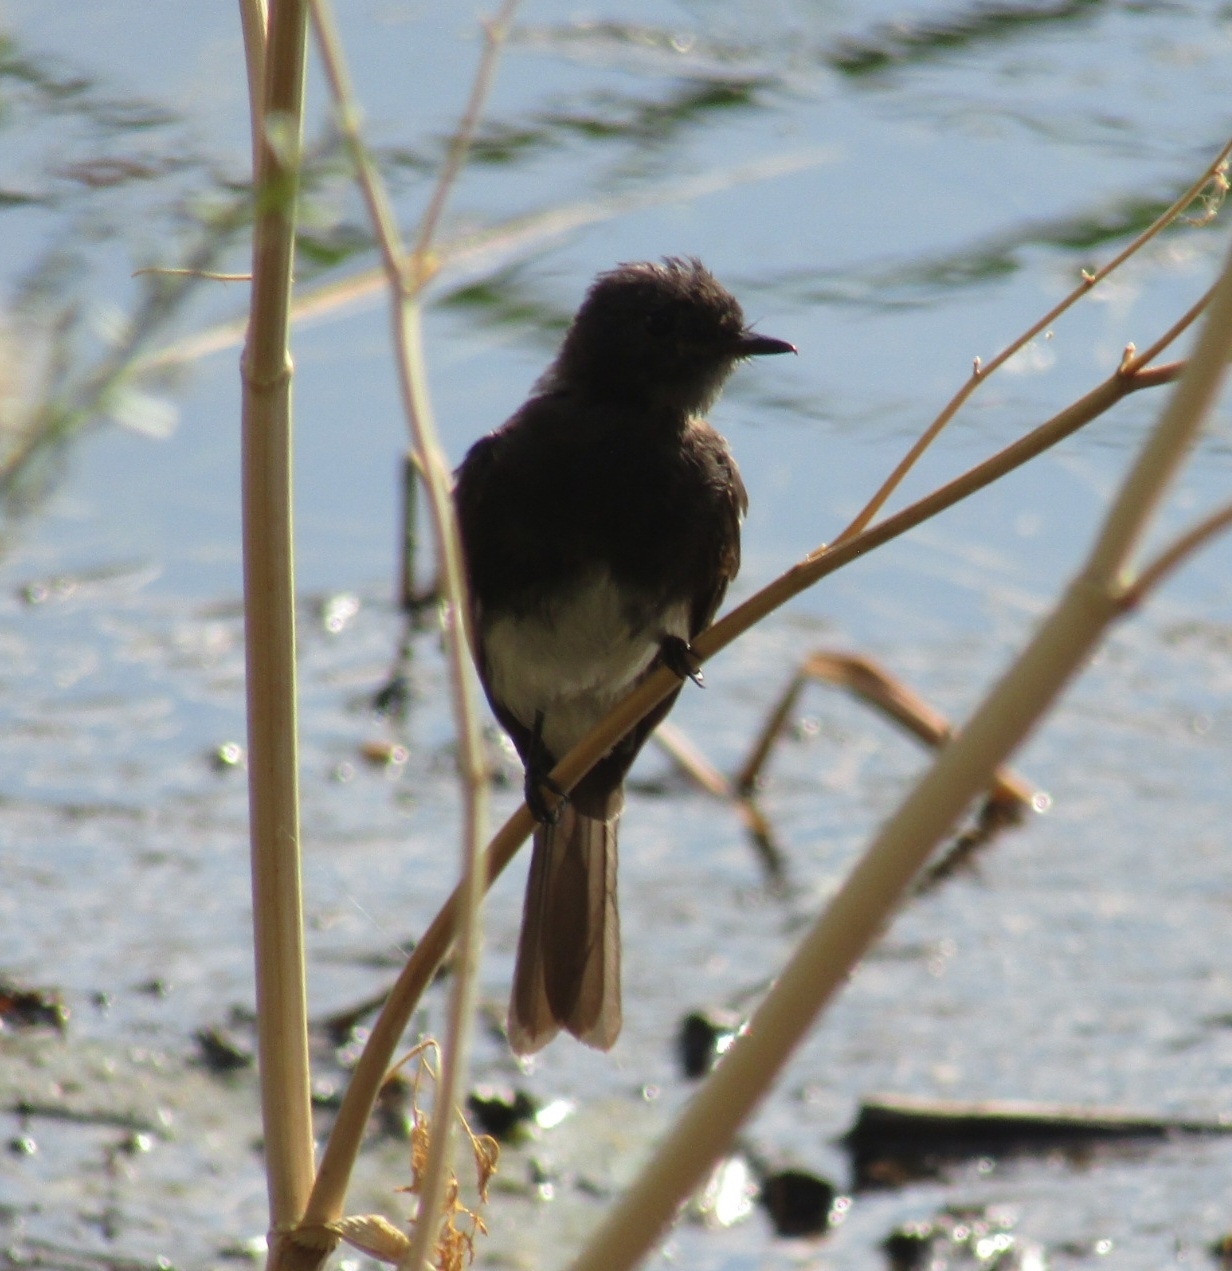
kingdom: Animalia
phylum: Chordata
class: Aves
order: Passeriformes
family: Tyrannidae
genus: Sayornis
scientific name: Sayornis nigricans
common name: Black phoebe
